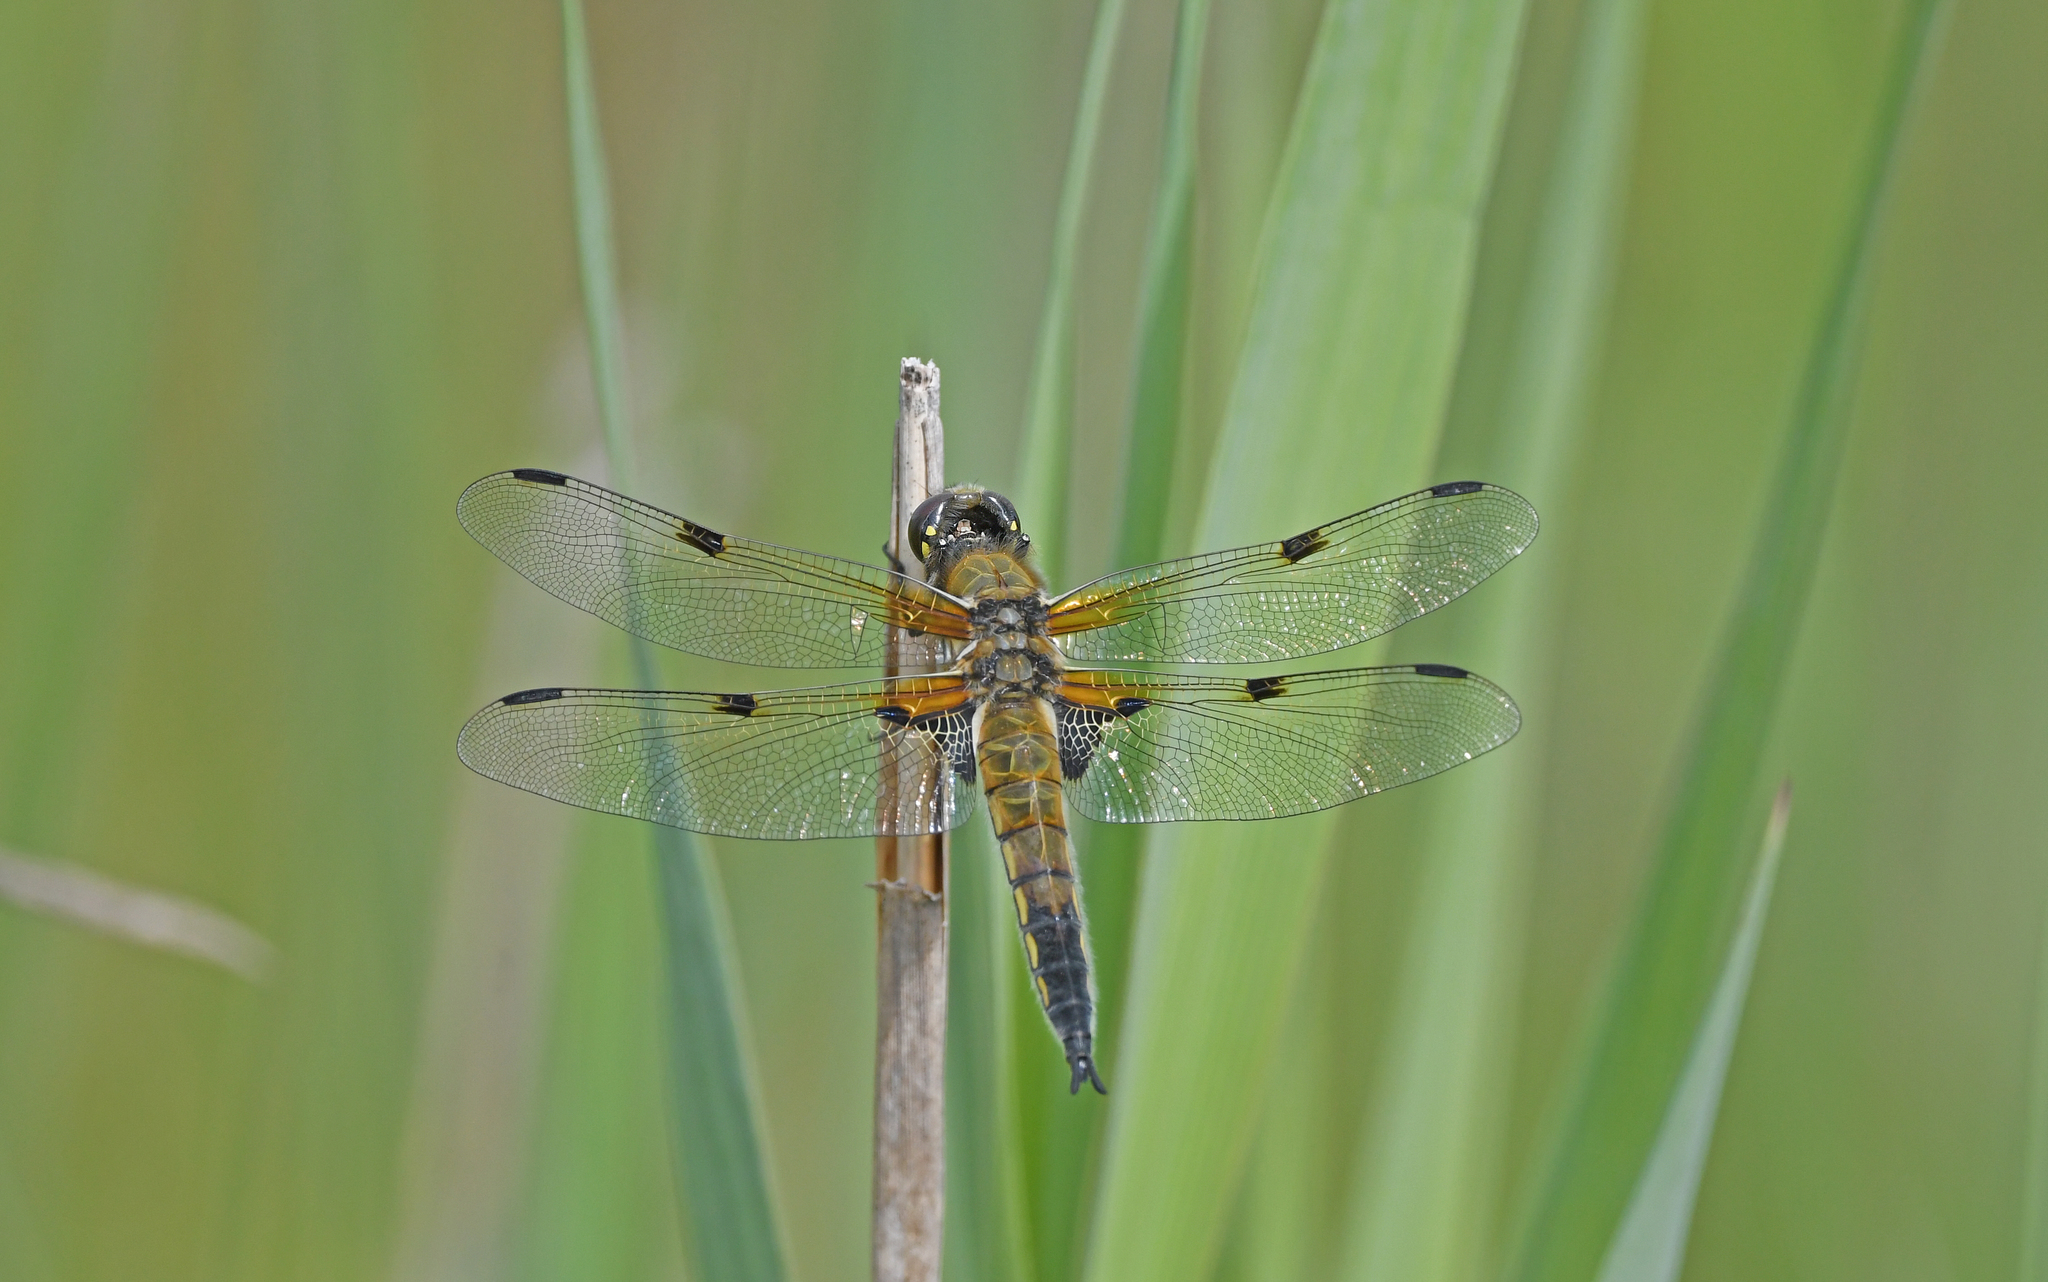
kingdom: Animalia
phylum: Arthropoda
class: Insecta
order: Odonata
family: Libellulidae
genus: Libellula
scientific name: Libellula quadrimaculata
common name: Four-spotted chaser
